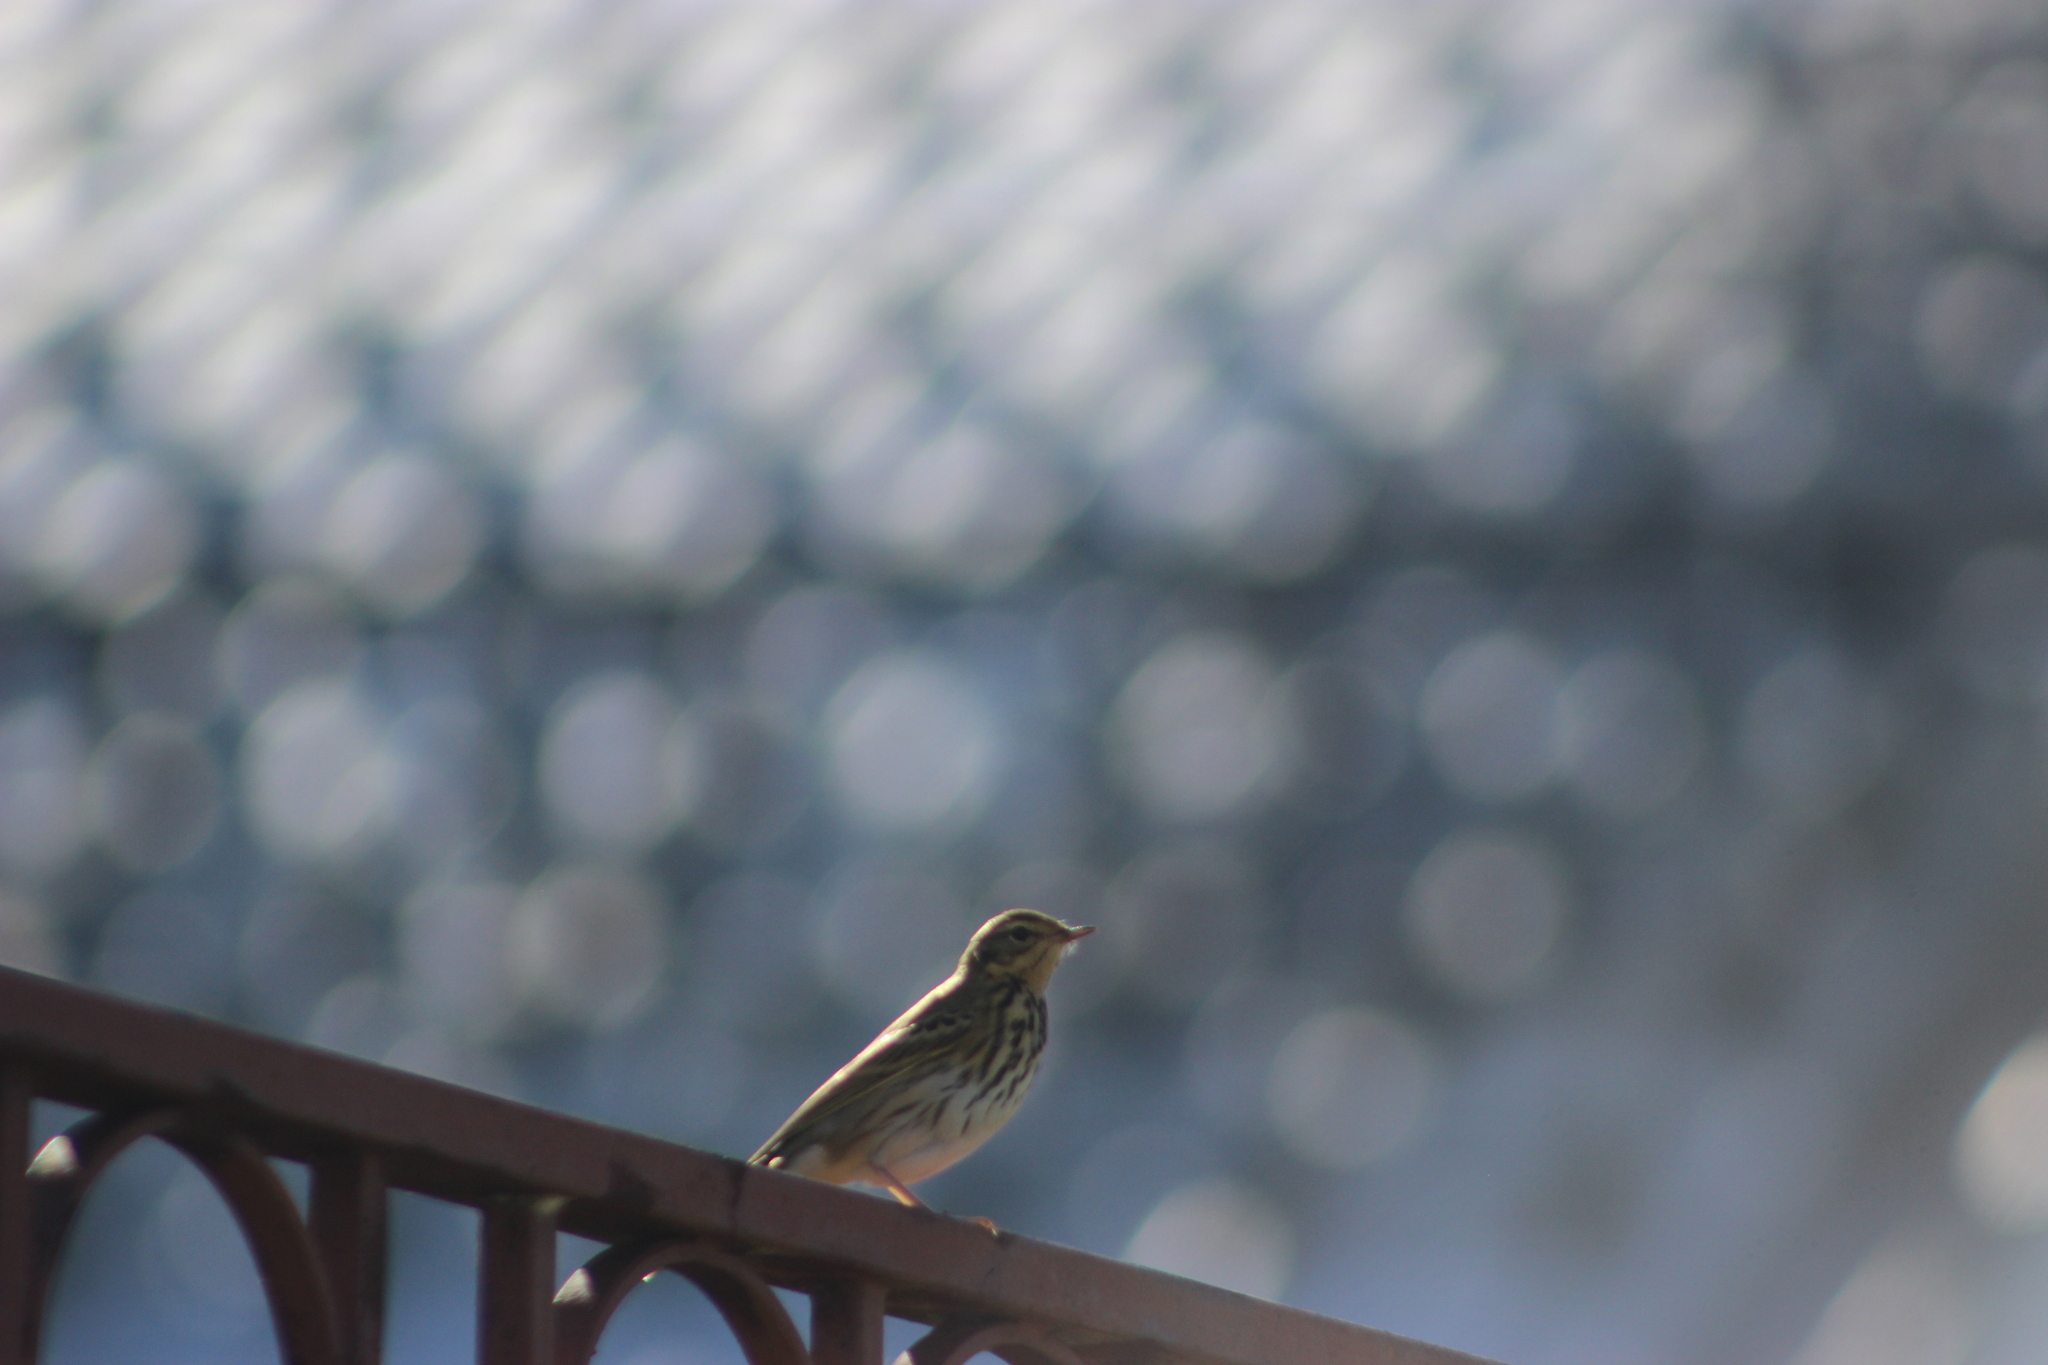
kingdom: Animalia
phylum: Chordata
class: Aves
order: Passeriformes
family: Motacillidae
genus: Anthus
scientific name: Anthus hodgsoni
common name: Olive-backed pipit
